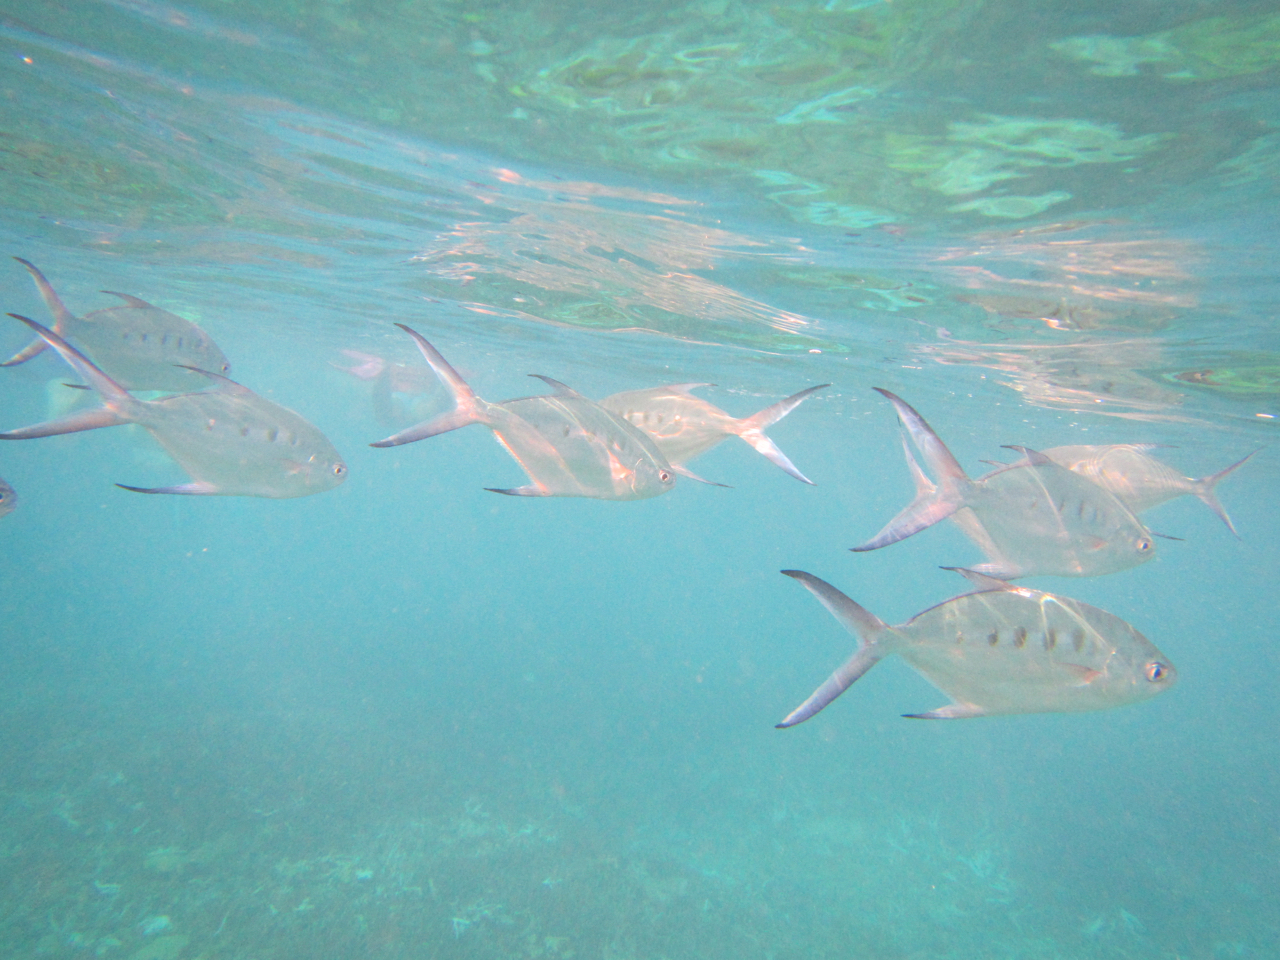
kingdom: Animalia
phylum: Chordata
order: Perciformes
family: Carangidae
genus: Trachinotus
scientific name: Trachinotus coppingeri
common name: Swallowtail dart
